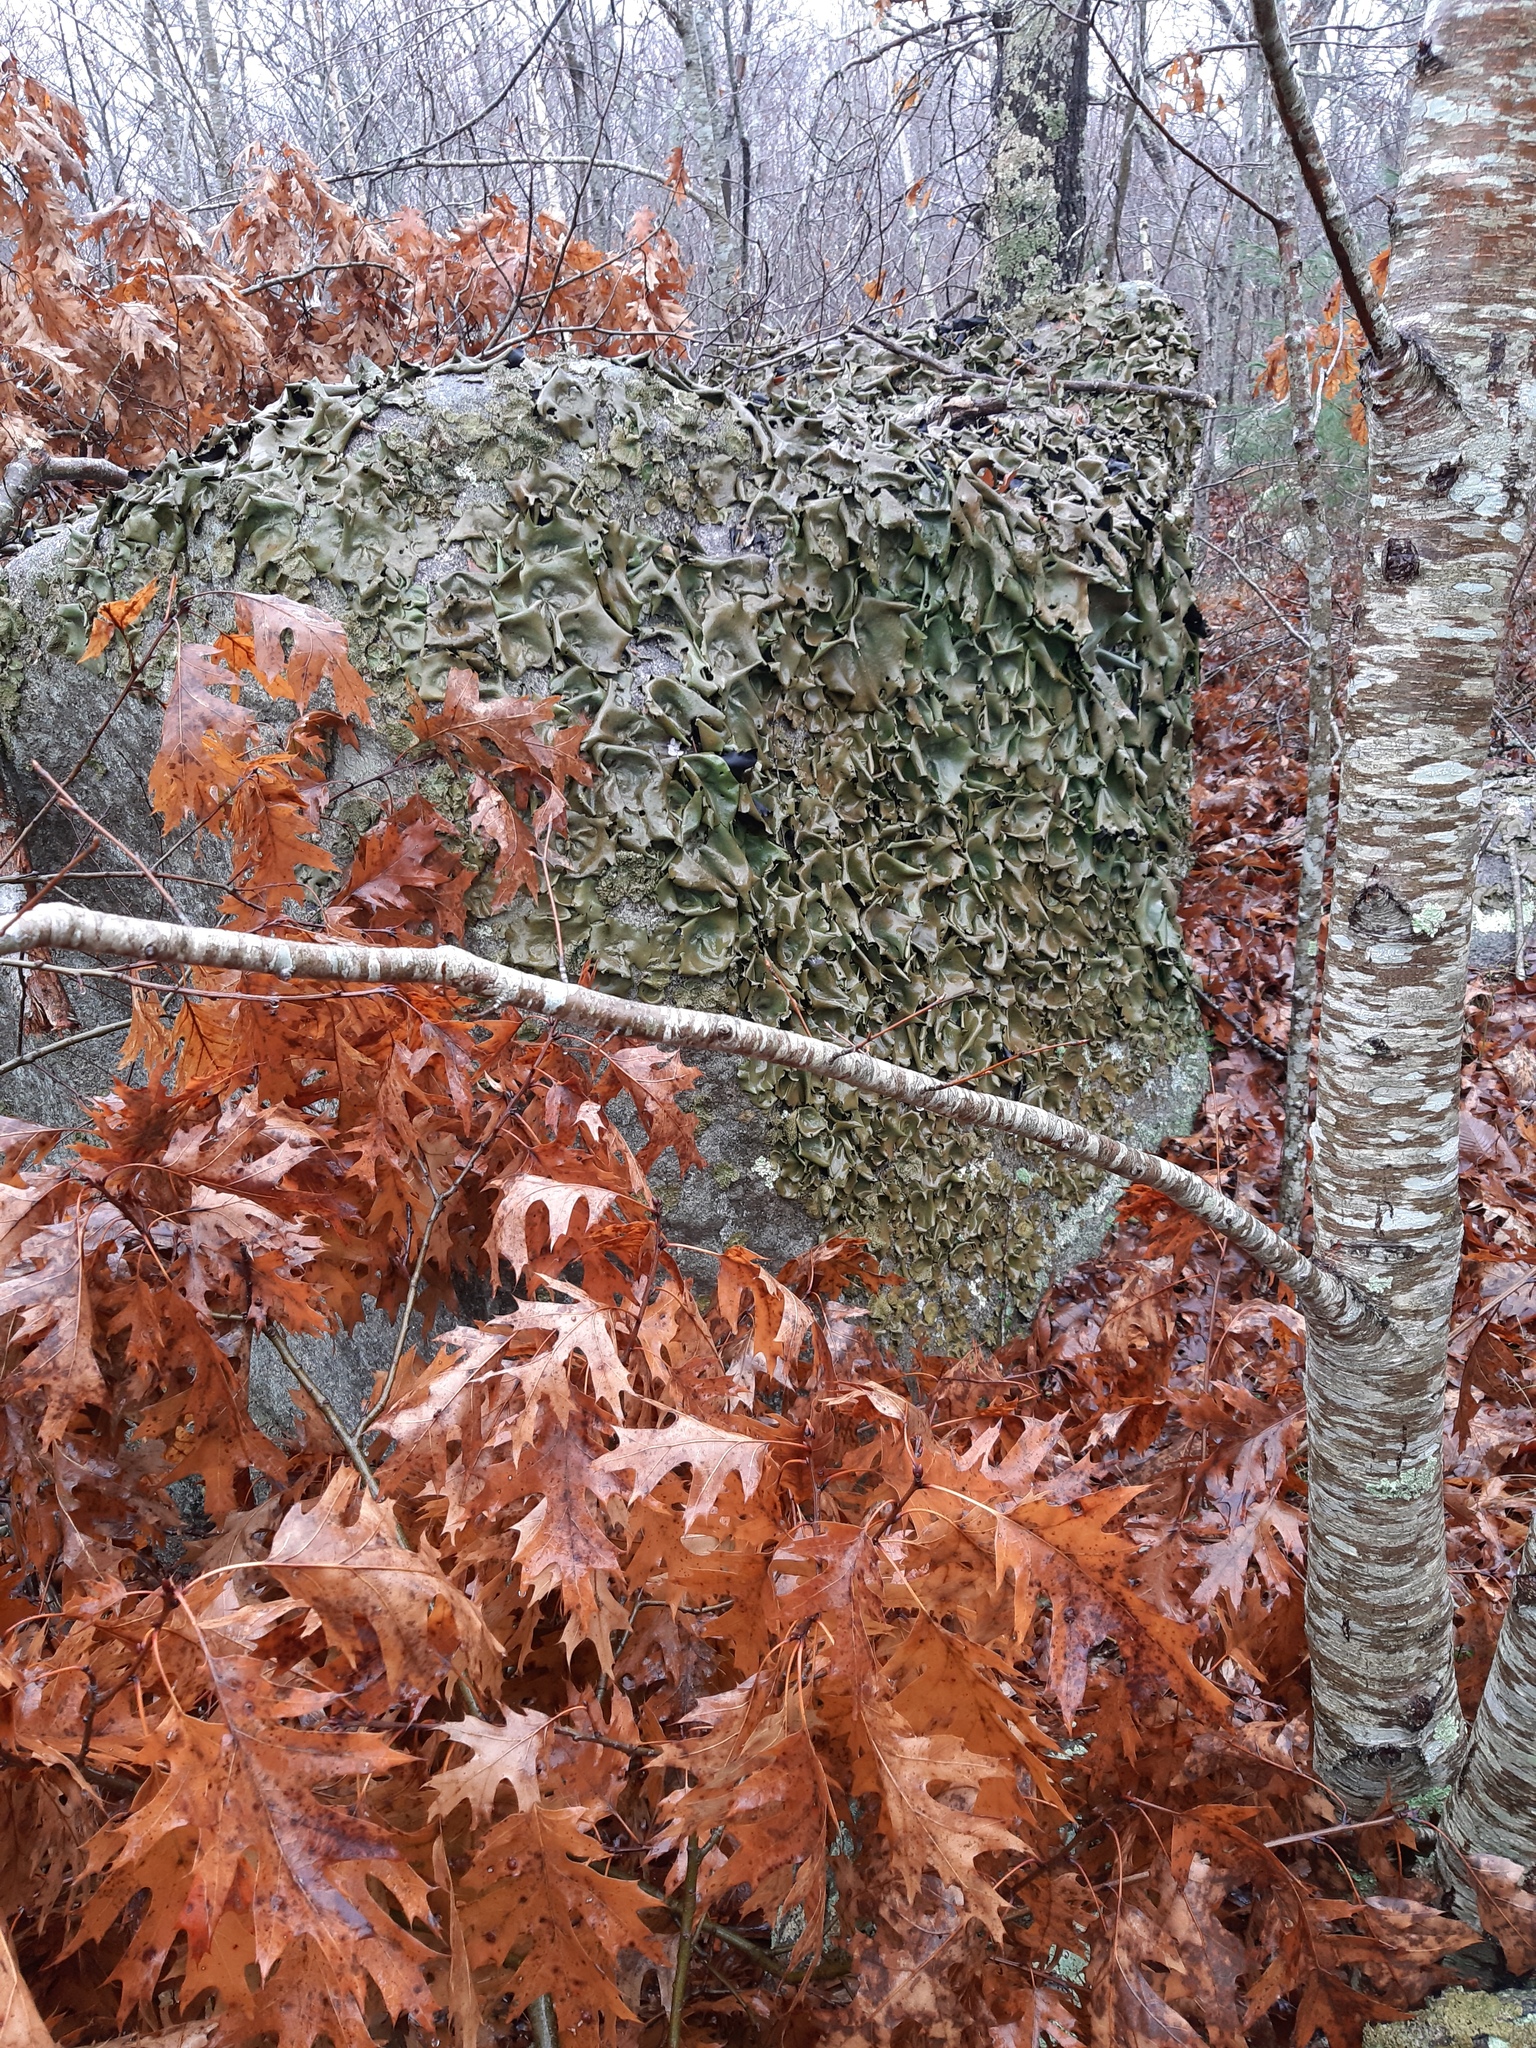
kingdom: Fungi
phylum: Ascomycota
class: Lecanoromycetes
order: Umbilicariales
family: Umbilicariaceae
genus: Umbilicaria
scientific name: Umbilicaria mammulata
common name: Smooth rock tripe
